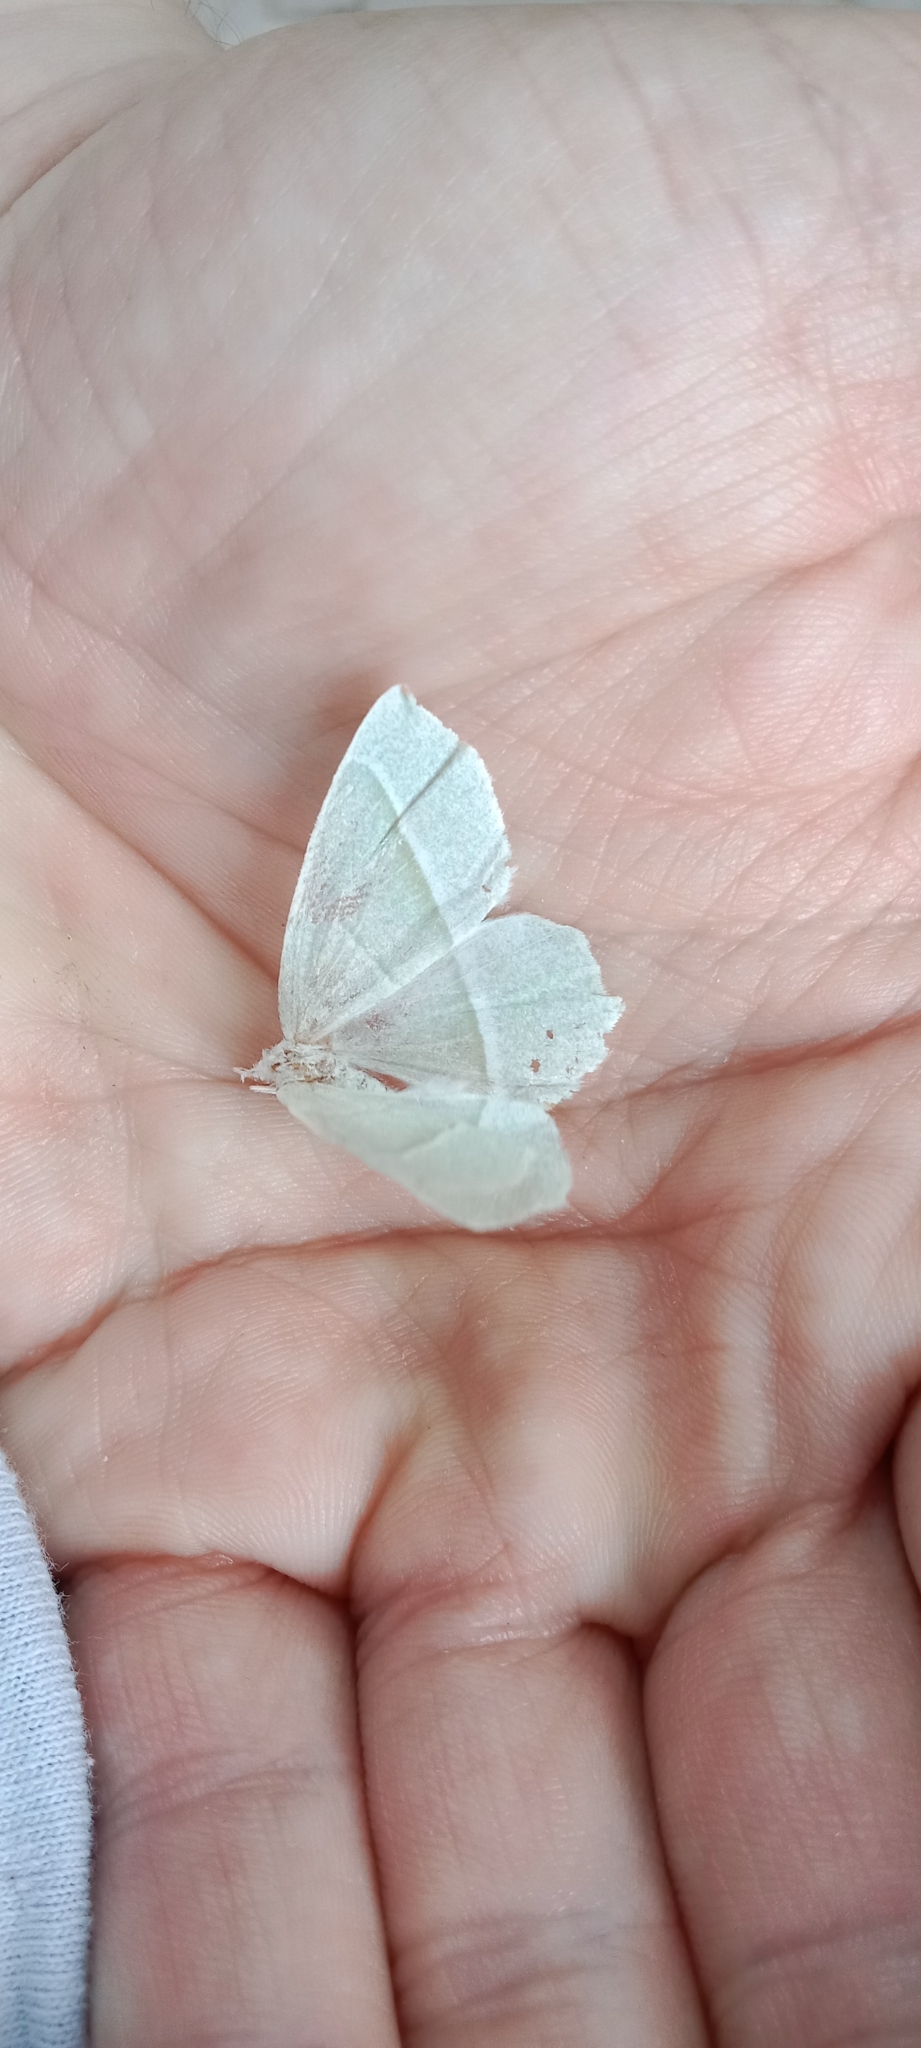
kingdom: Animalia
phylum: Arthropoda
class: Insecta
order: Lepidoptera
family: Geometridae
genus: Campaea
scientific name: Campaea margaritaria
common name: Light emerald
